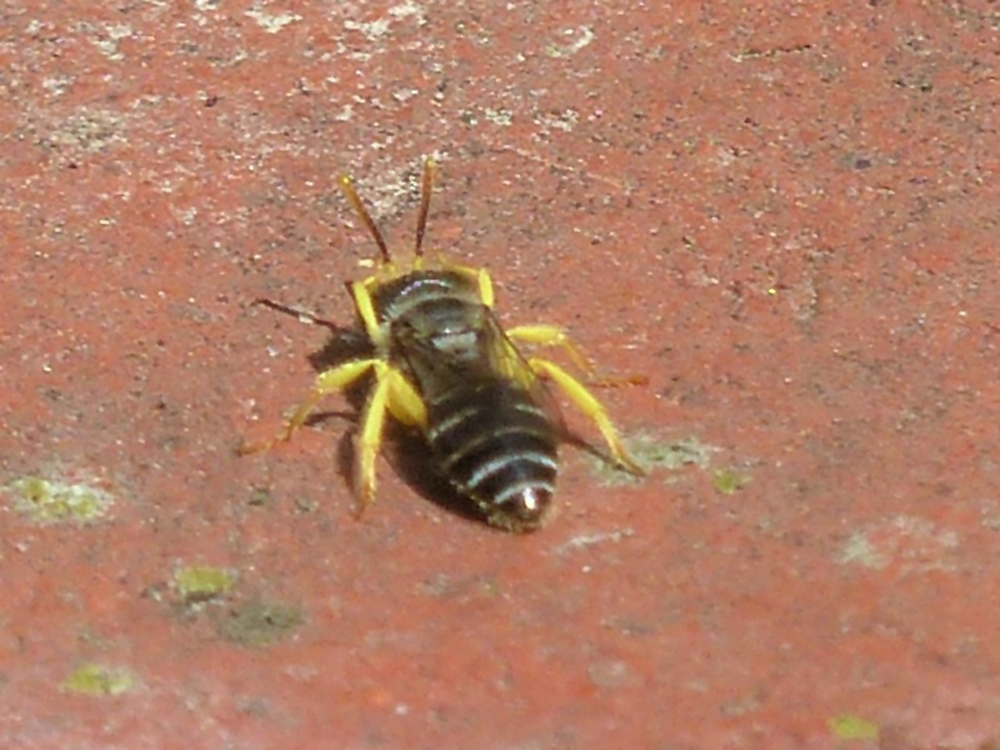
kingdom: Animalia
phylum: Arthropoda
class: Insecta
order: Hymenoptera
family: Andrenidae
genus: Calliopsis
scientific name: Calliopsis andreniformis
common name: Eastern calliopsis bee
